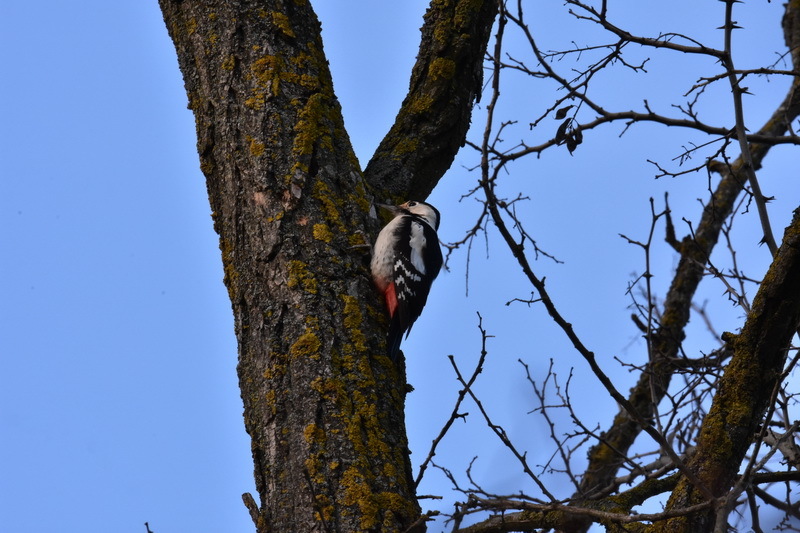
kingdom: Animalia
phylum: Chordata
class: Aves
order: Piciformes
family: Picidae
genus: Dendrocopos
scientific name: Dendrocopos syriacus
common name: Syrian woodpecker
